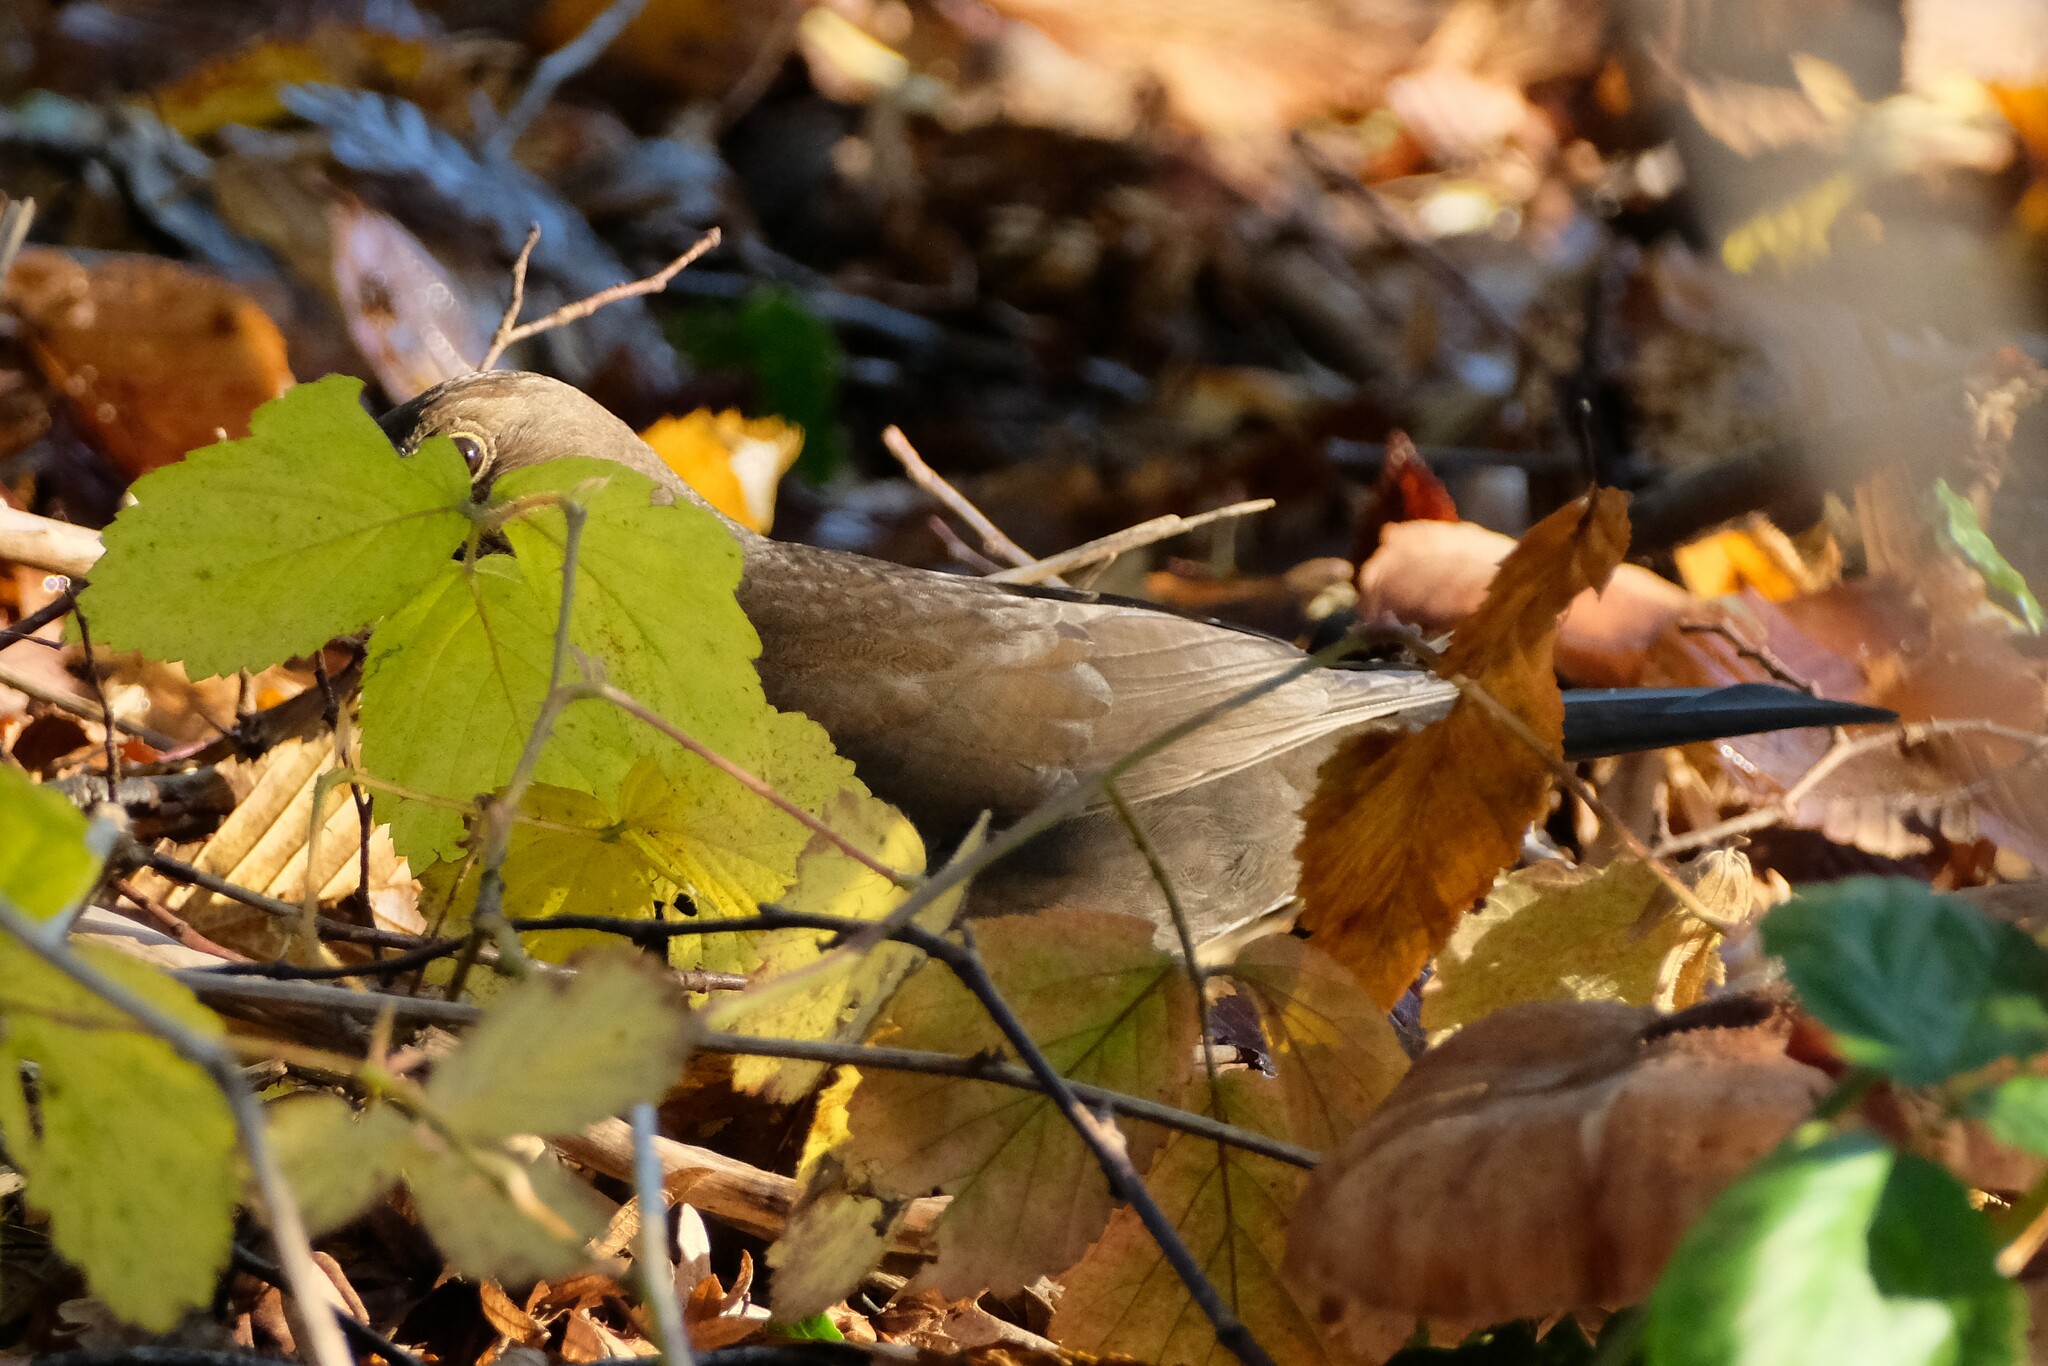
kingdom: Animalia
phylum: Chordata
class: Aves
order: Passeriformes
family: Turdidae
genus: Turdus
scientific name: Turdus merula
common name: Common blackbird
